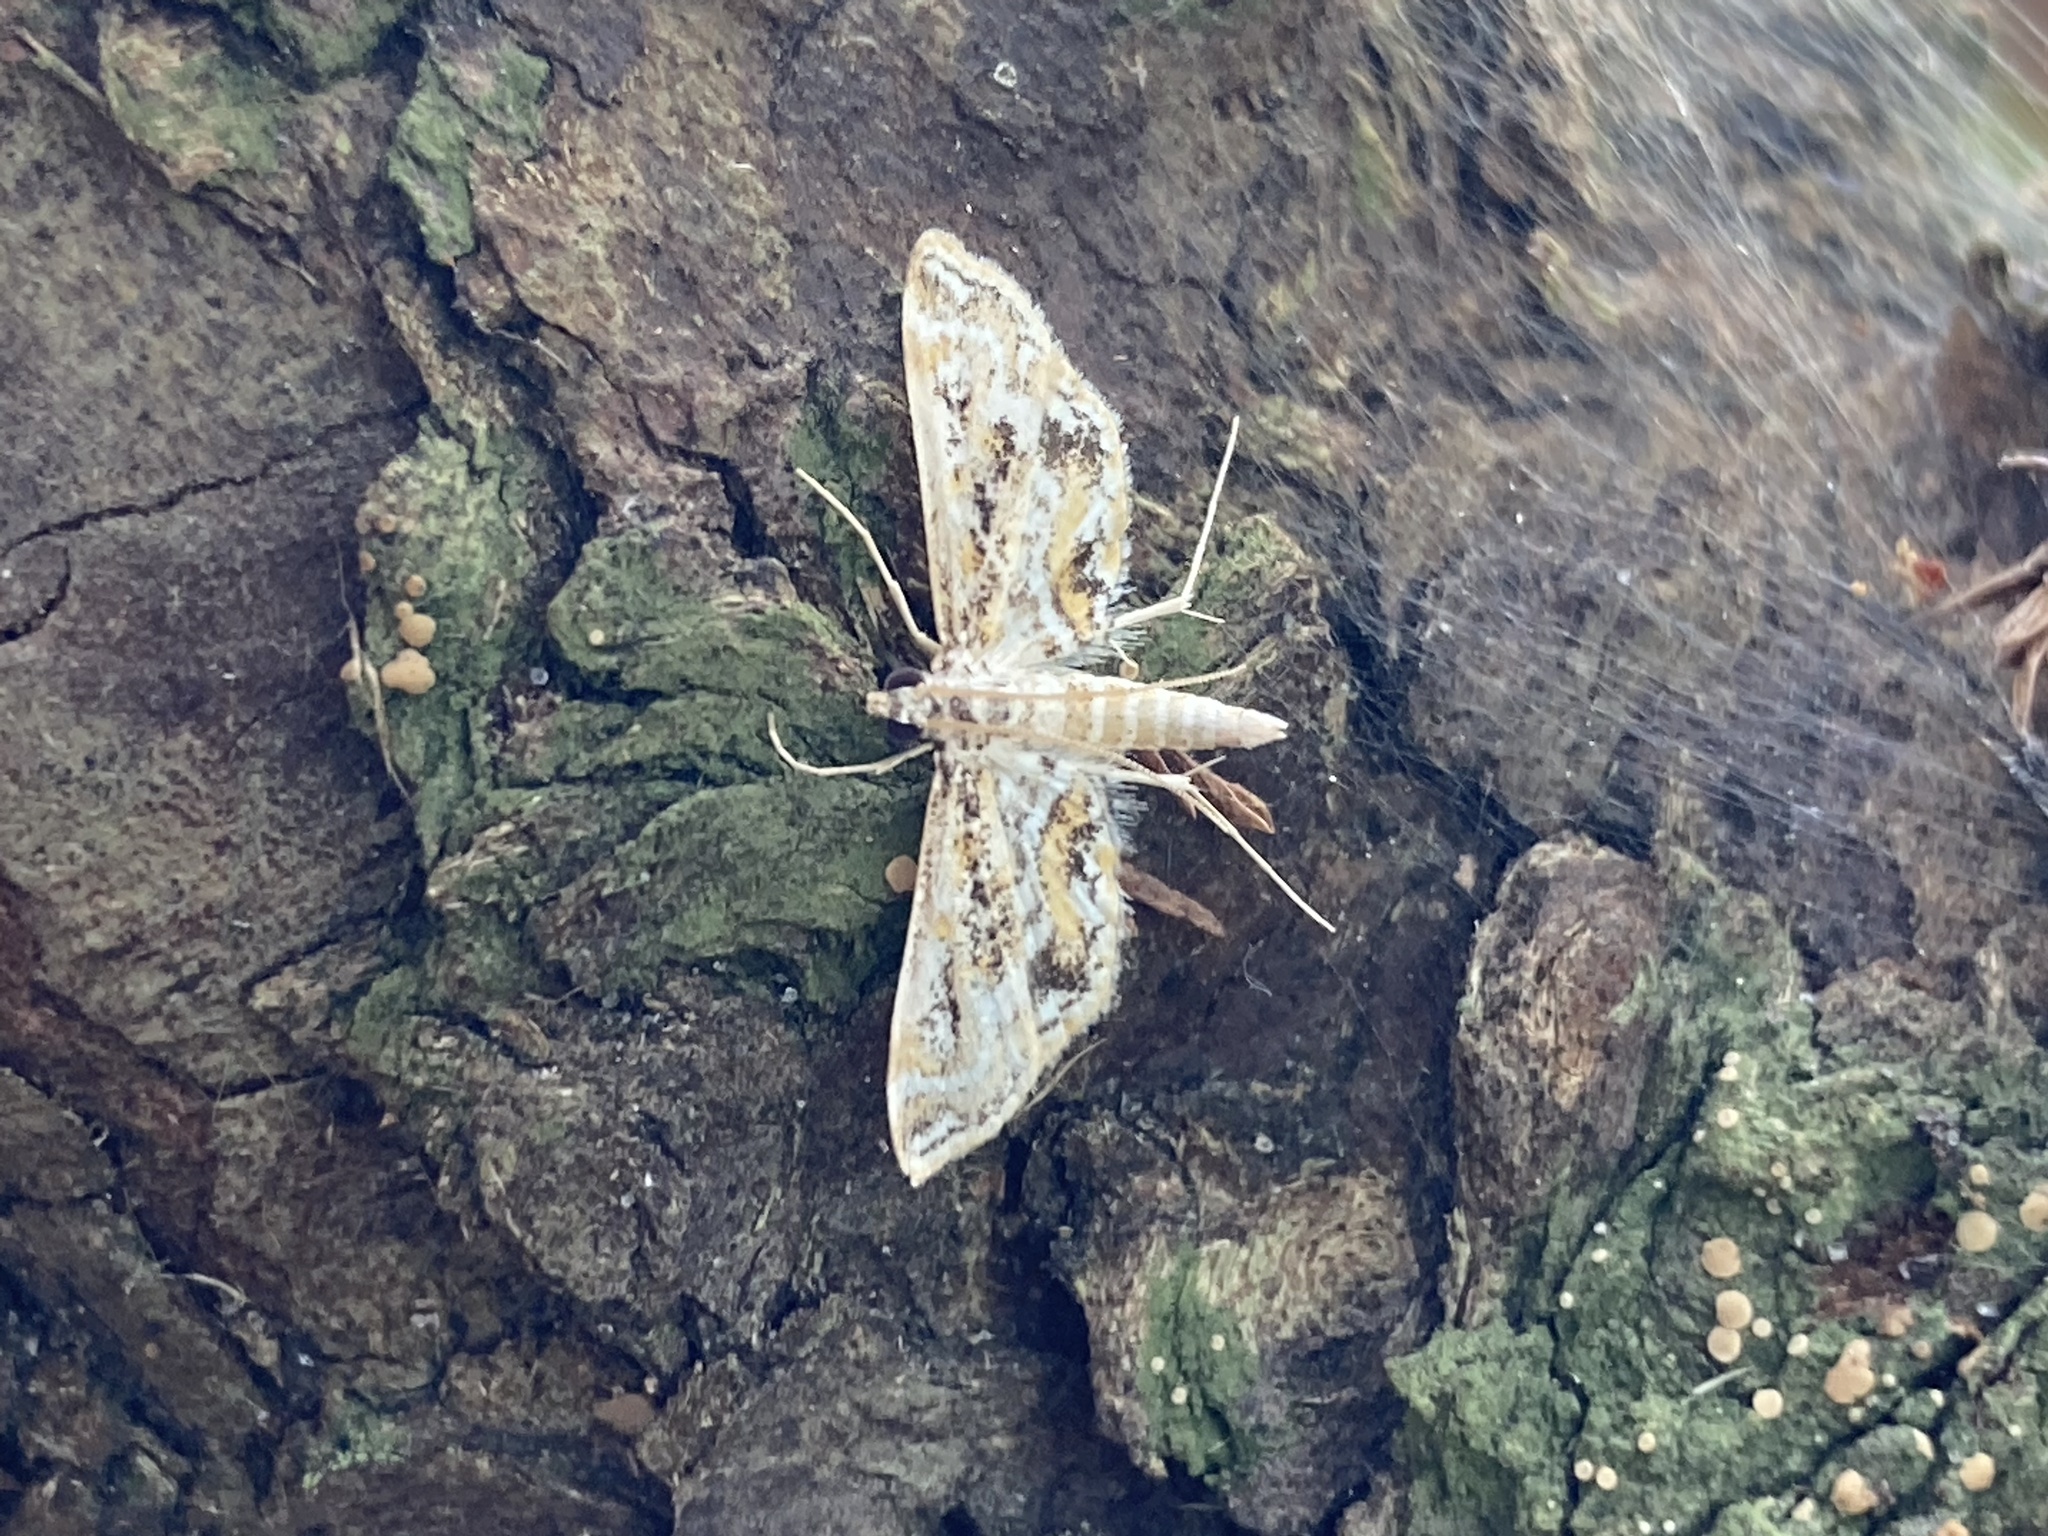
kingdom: Animalia
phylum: Arthropoda
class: Insecta
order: Lepidoptera
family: Crambidae
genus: Parapoynx
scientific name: Parapoynx diminutalis
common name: Hydrilla leafcutter
